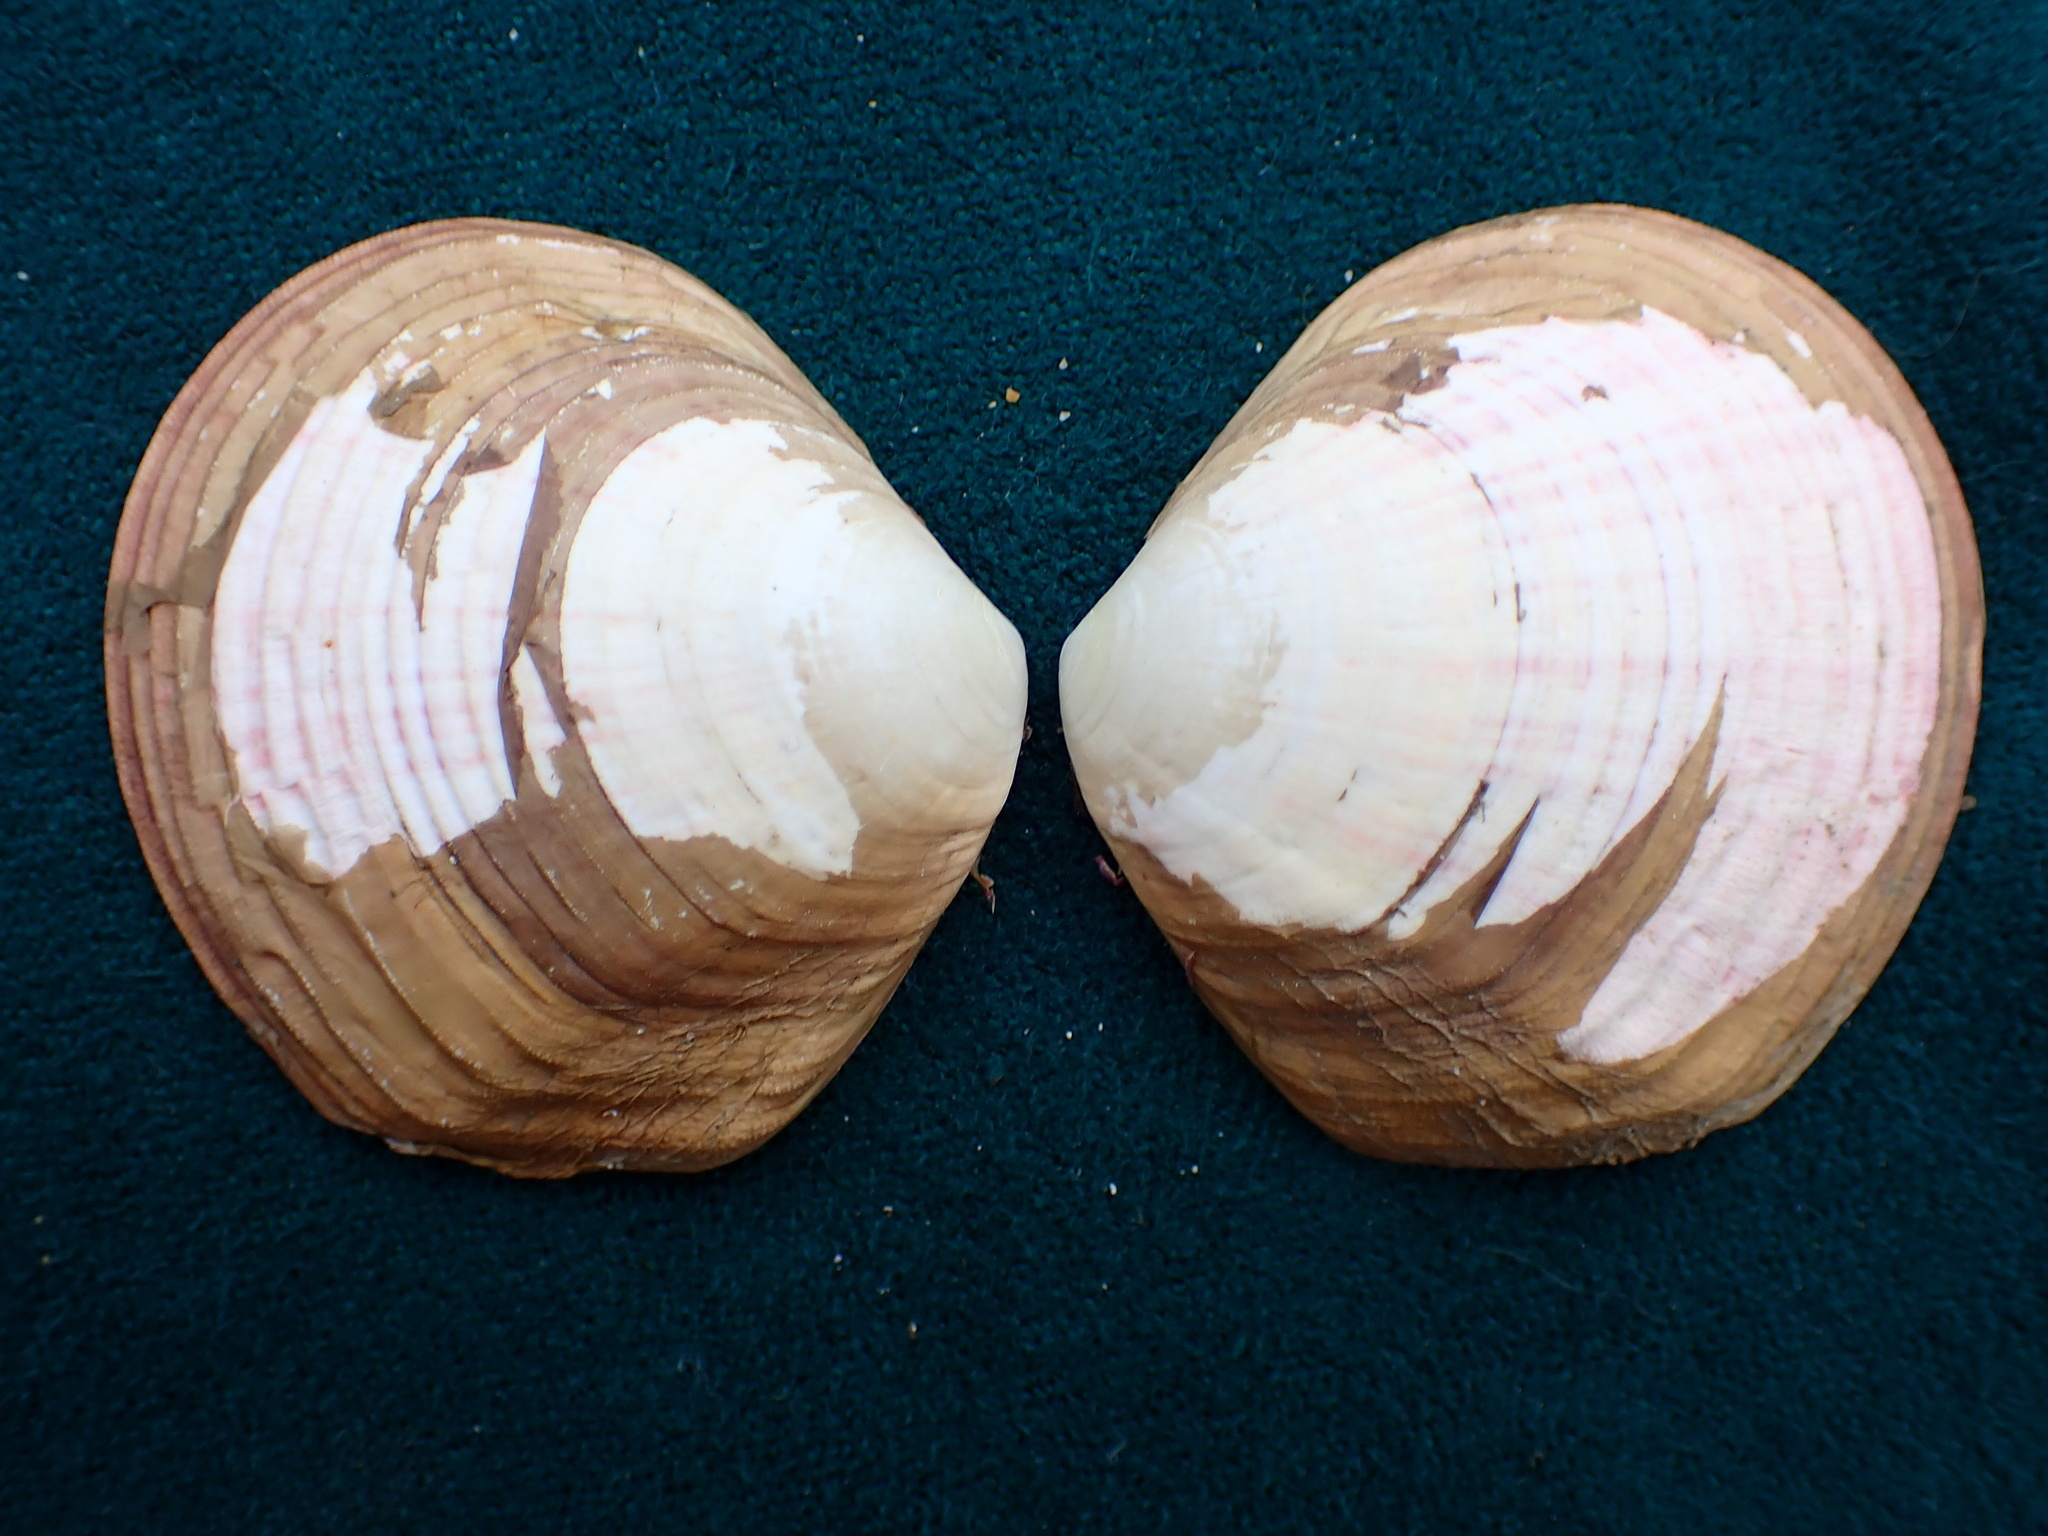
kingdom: Animalia
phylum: Mollusca
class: Bivalvia
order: Cardiida
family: Semelidae
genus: Semele
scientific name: Semele decisa
